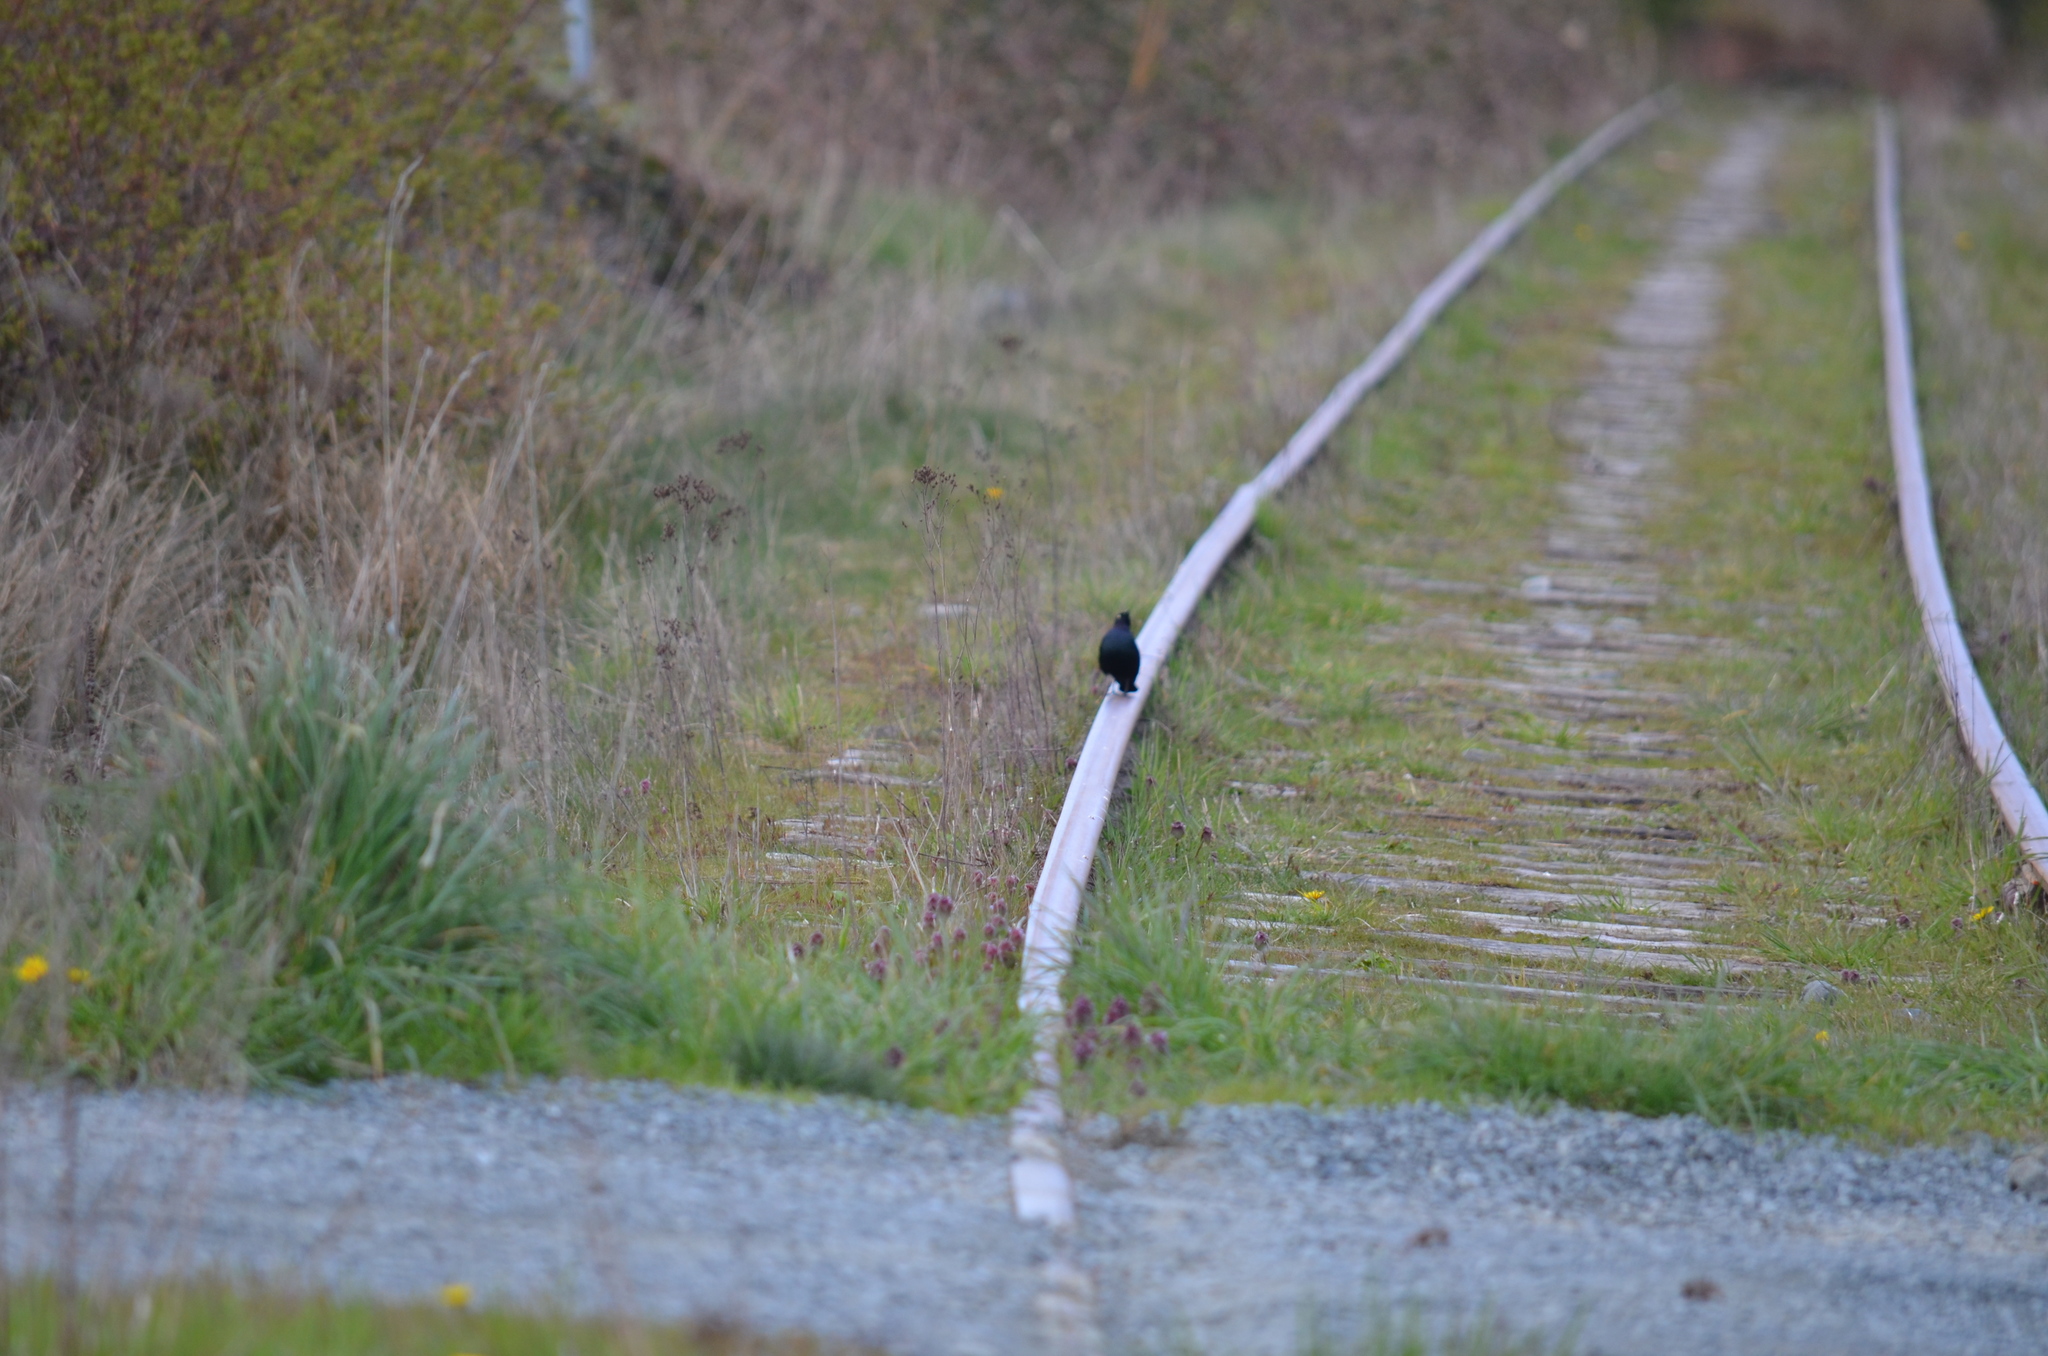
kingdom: Animalia
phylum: Chordata
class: Aves
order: Passeriformes
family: Icteridae
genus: Euphagus
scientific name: Euphagus cyanocephalus
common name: Brewer's blackbird
